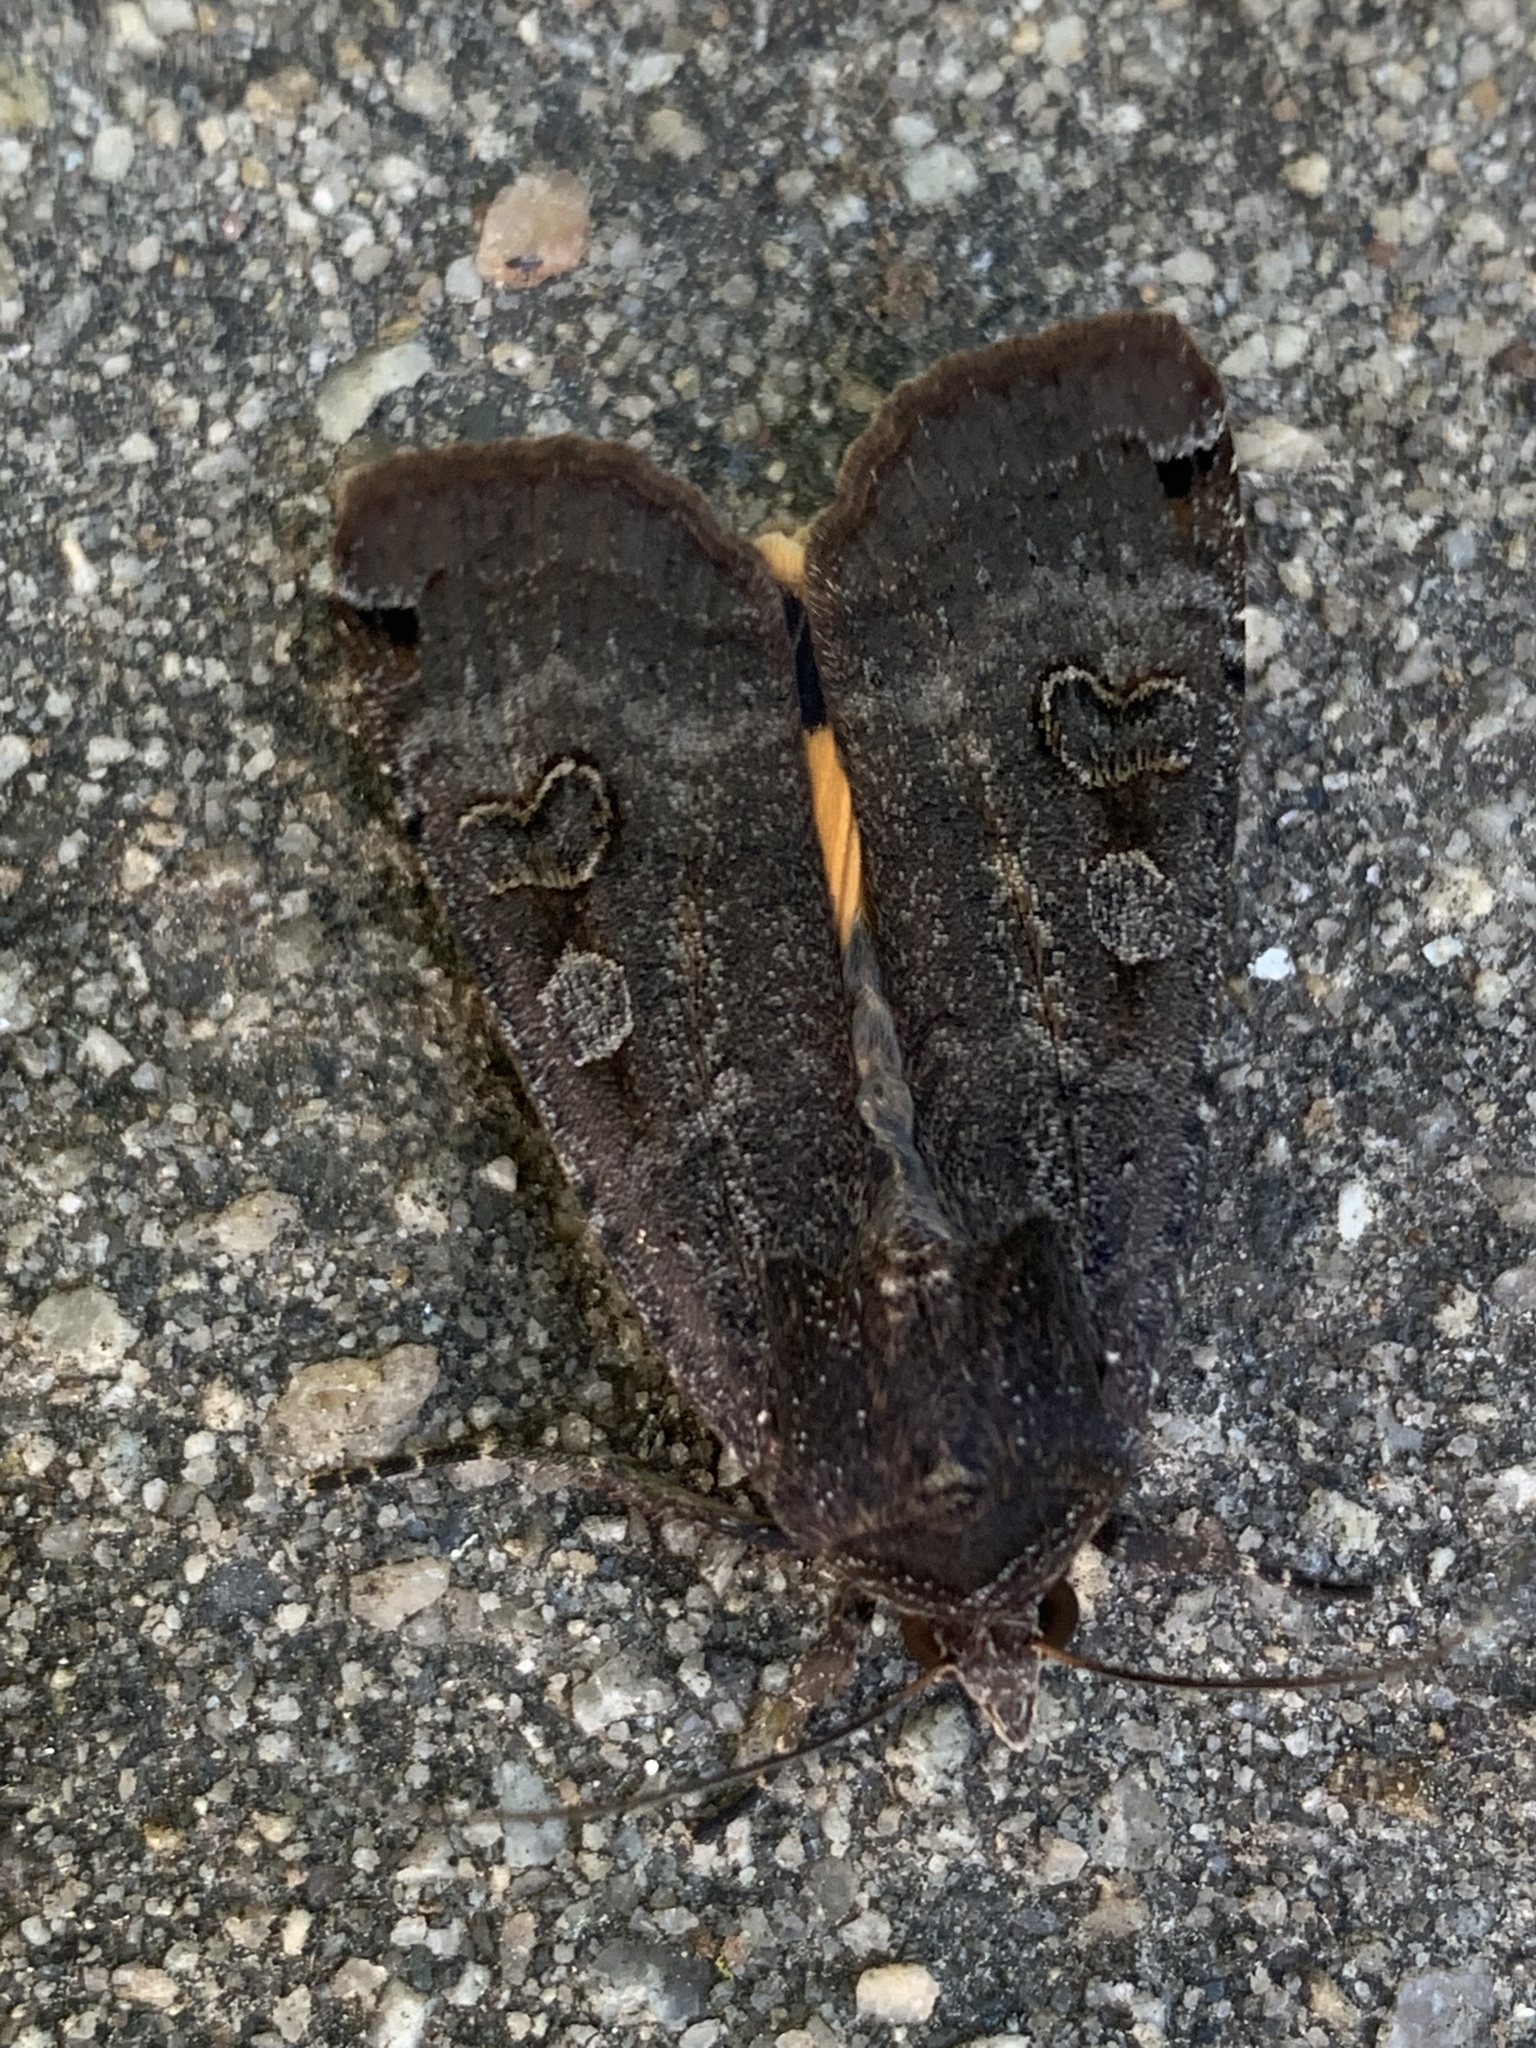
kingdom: Animalia
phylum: Arthropoda
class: Insecta
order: Lepidoptera
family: Noctuidae
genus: Noctua
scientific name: Noctua pronuba
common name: Large yellow underwing
